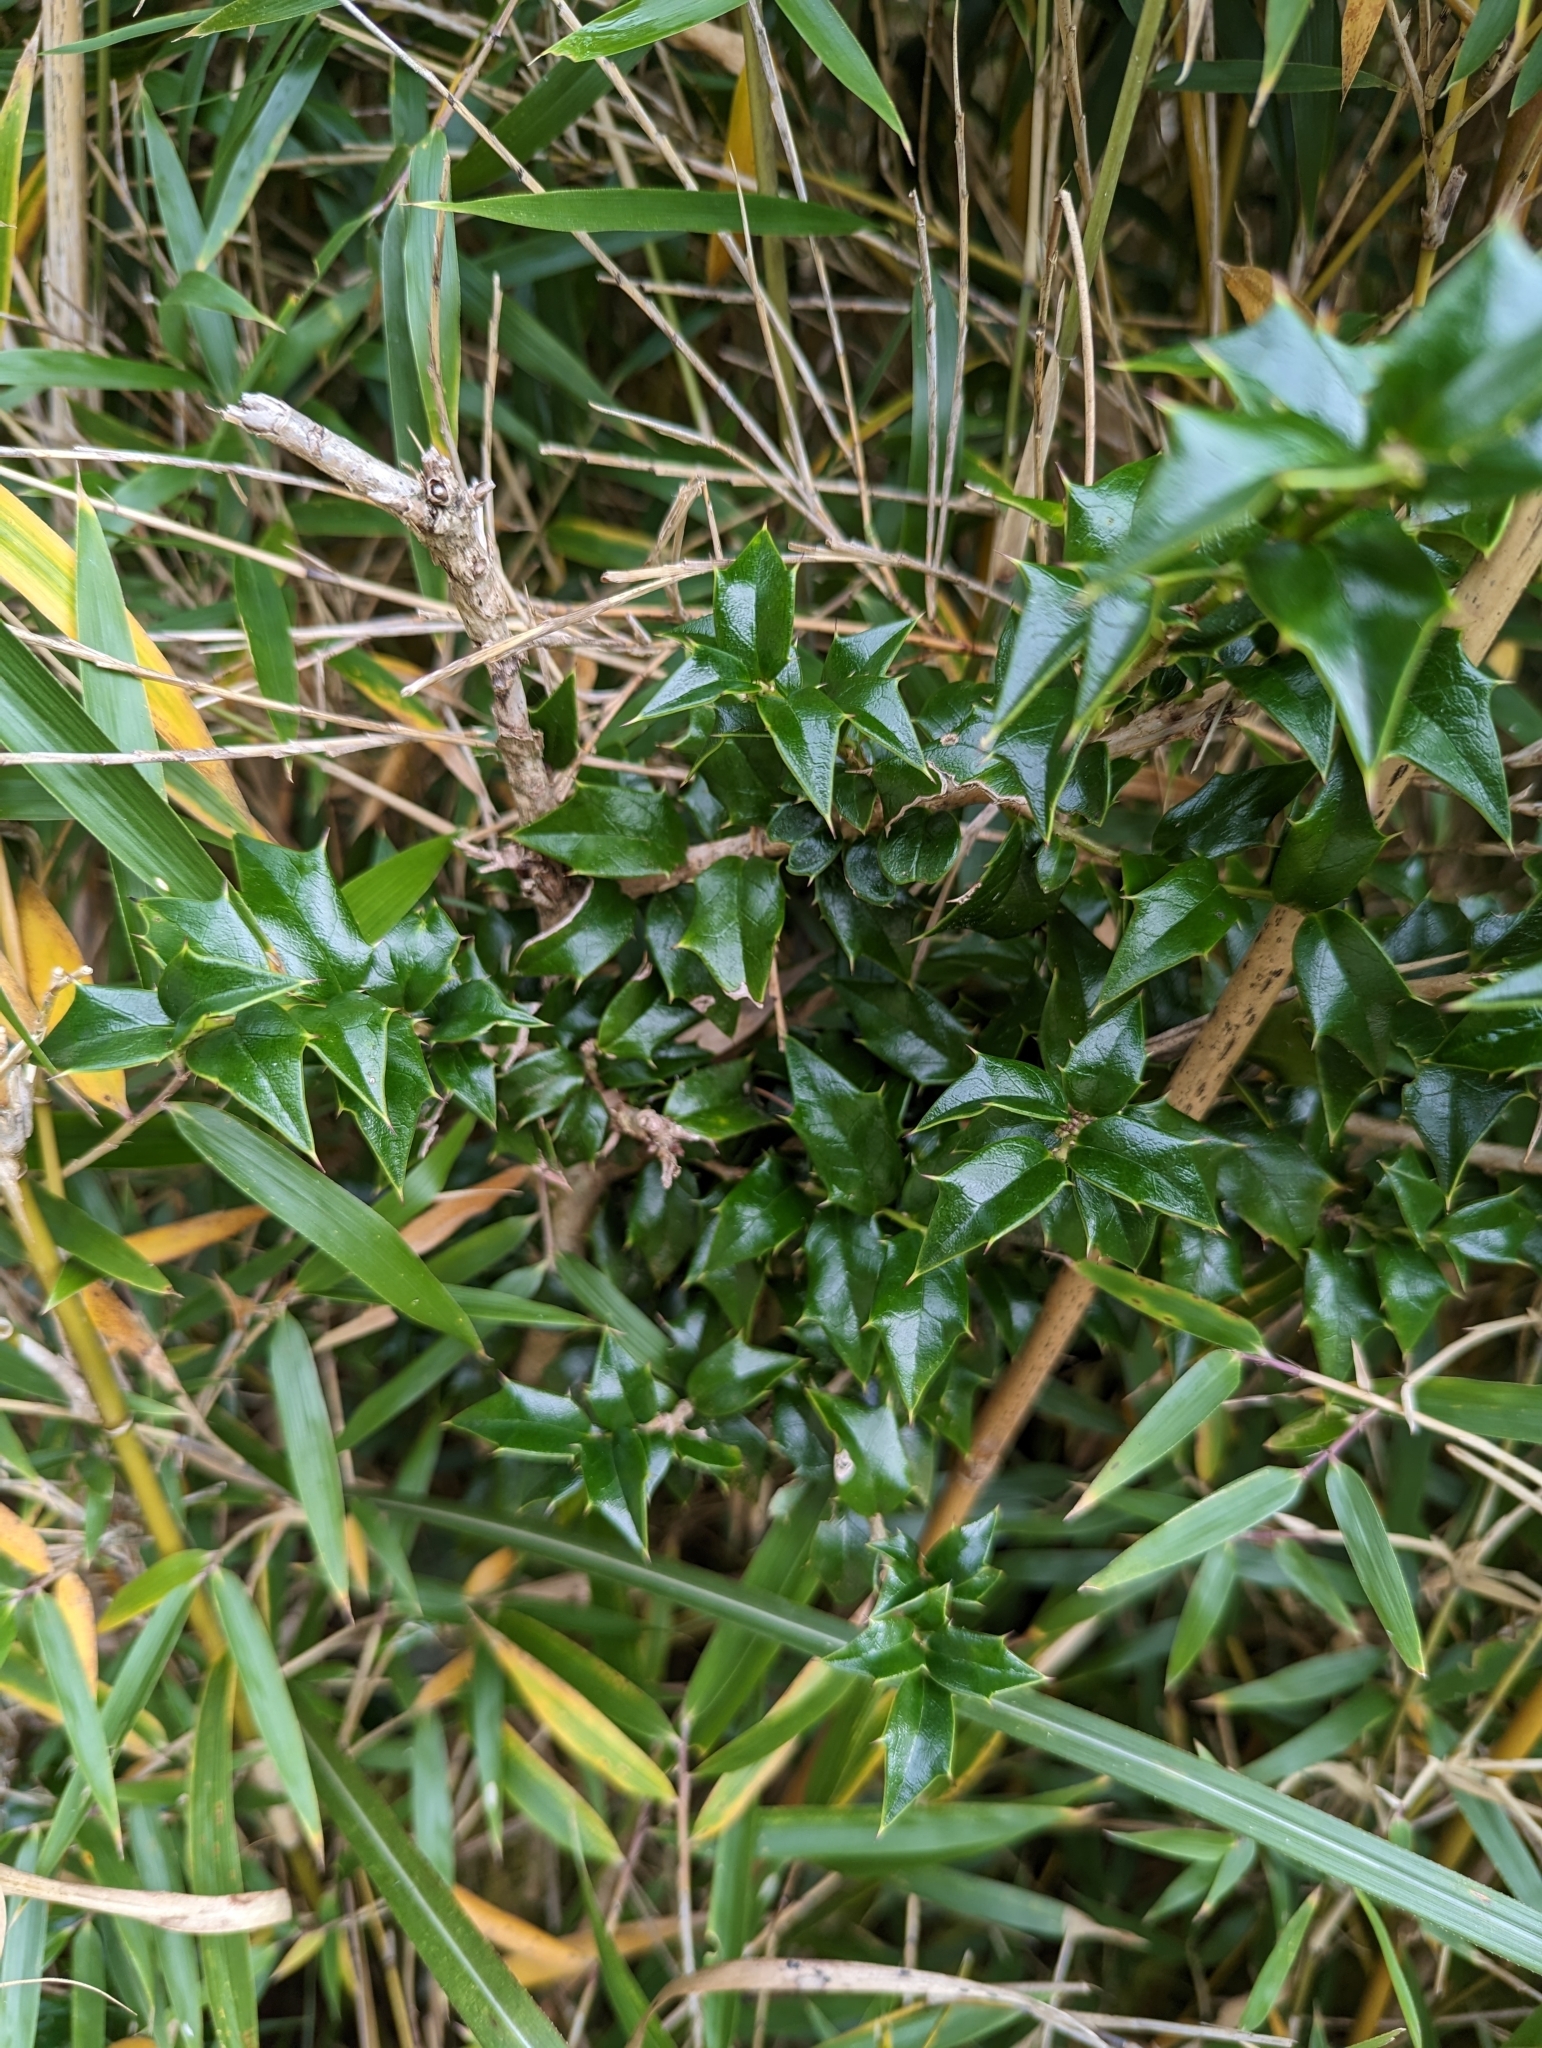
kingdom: Plantae
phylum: Tracheophyta
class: Magnoliopsida
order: Aquifoliales
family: Aquifoliaceae
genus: Ilex
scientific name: Ilex bioritsensis
